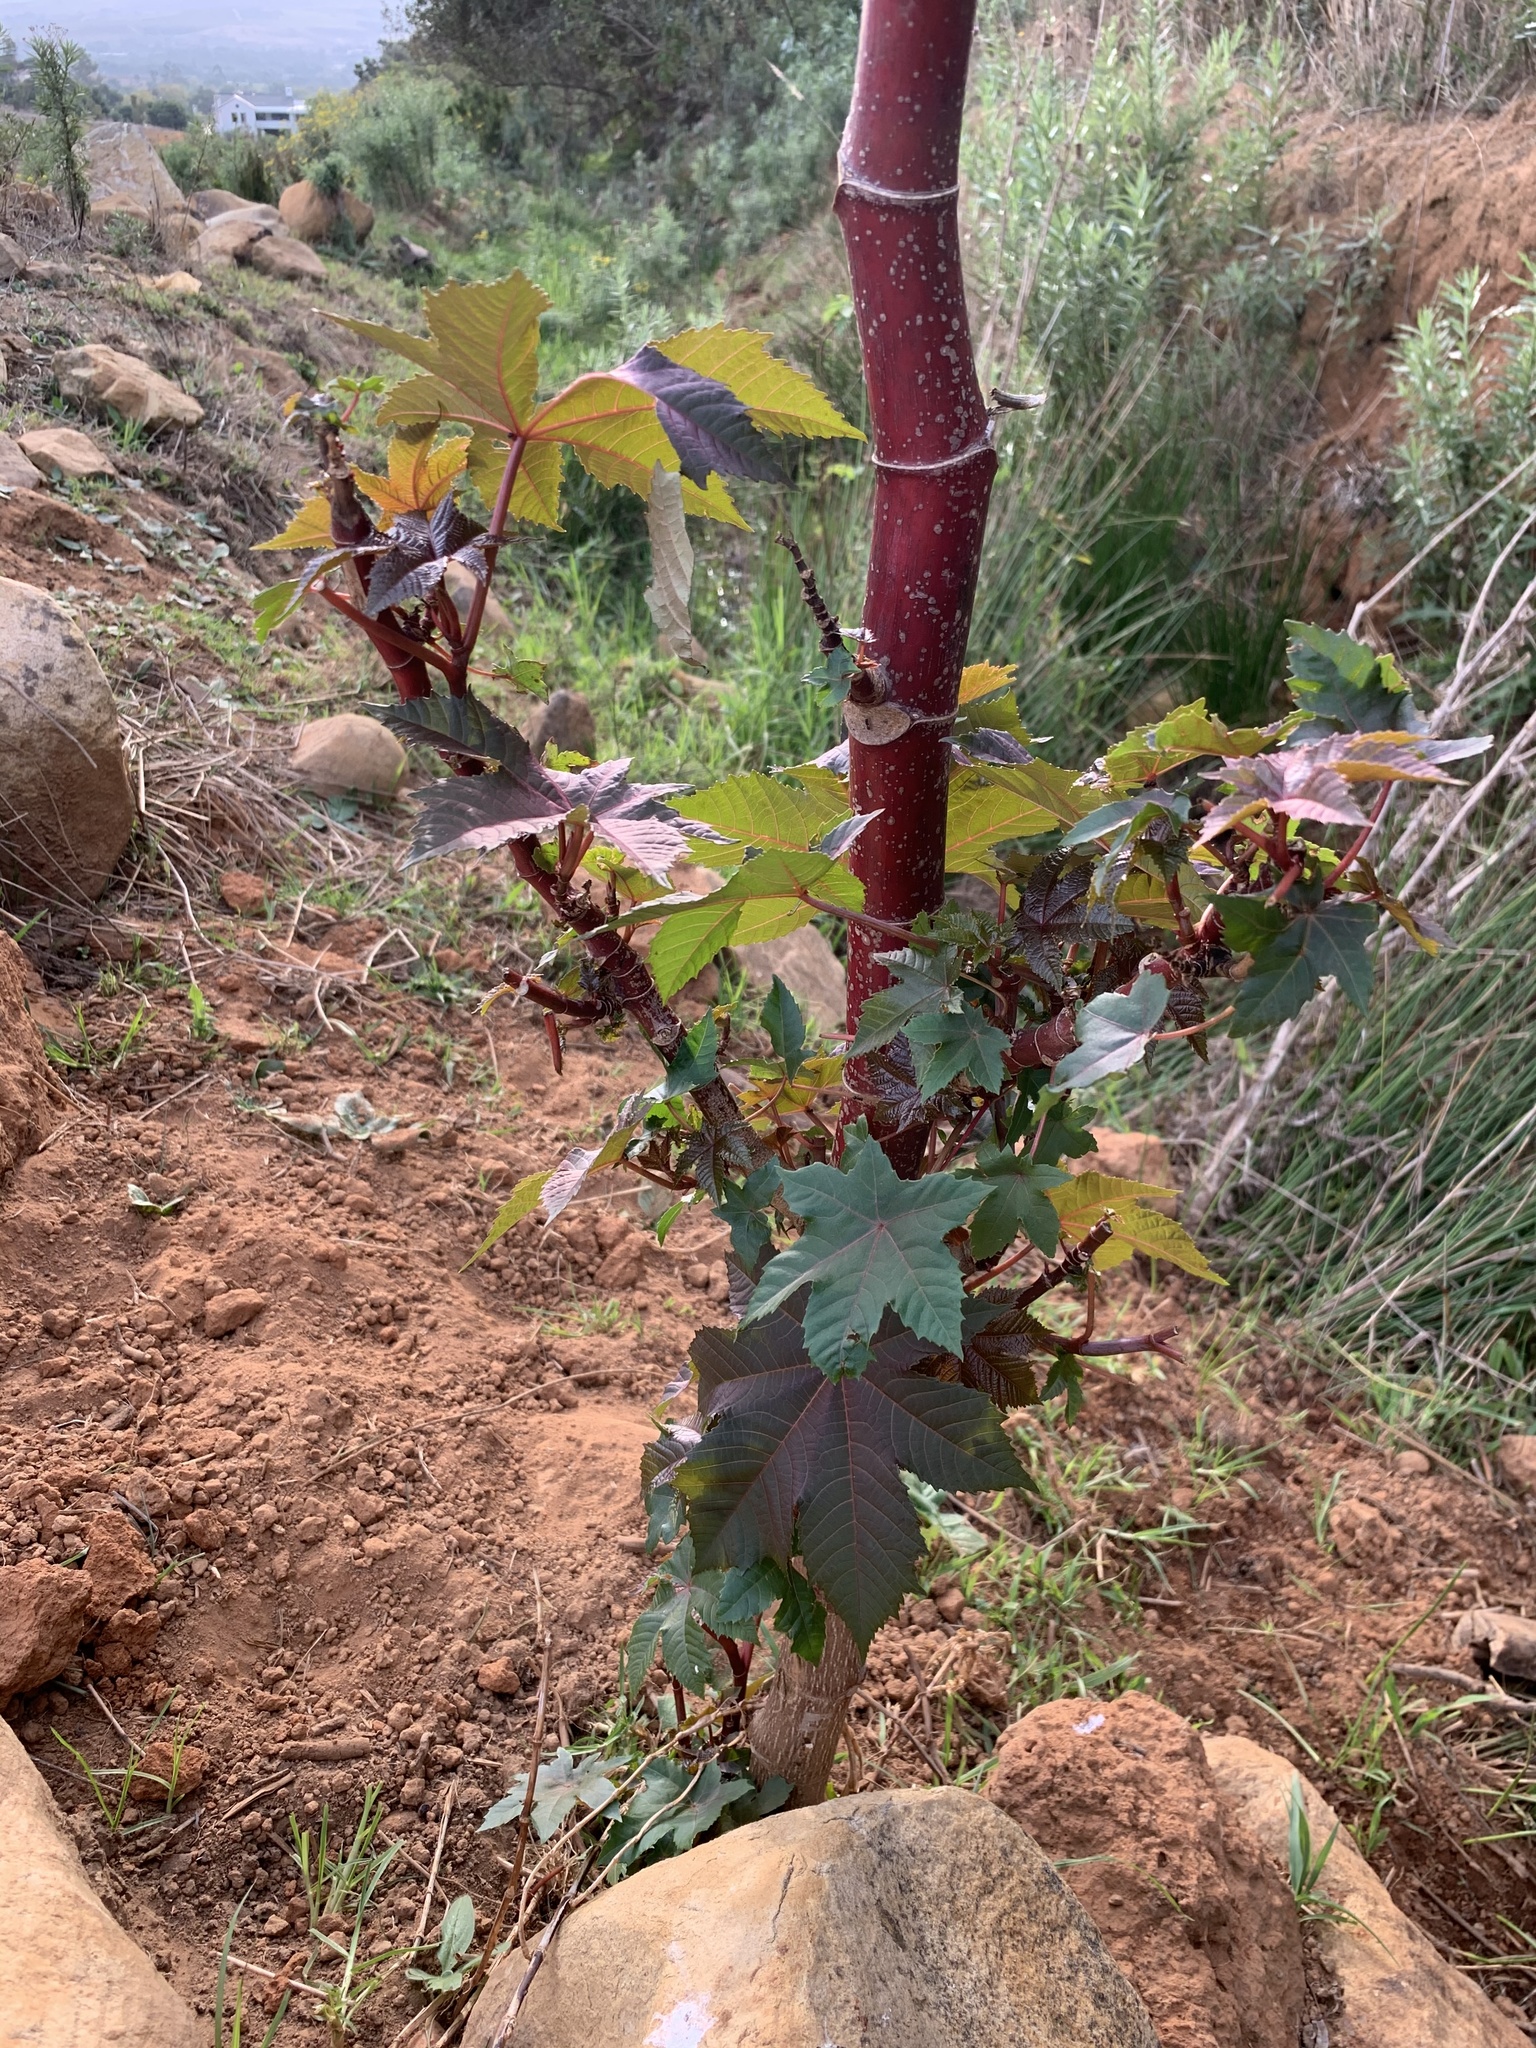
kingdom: Plantae
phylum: Tracheophyta
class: Magnoliopsida
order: Malpighiales
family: Euphorbiaceae
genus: Ricinus
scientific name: Ricinus communis
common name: Castor-oil-plant
